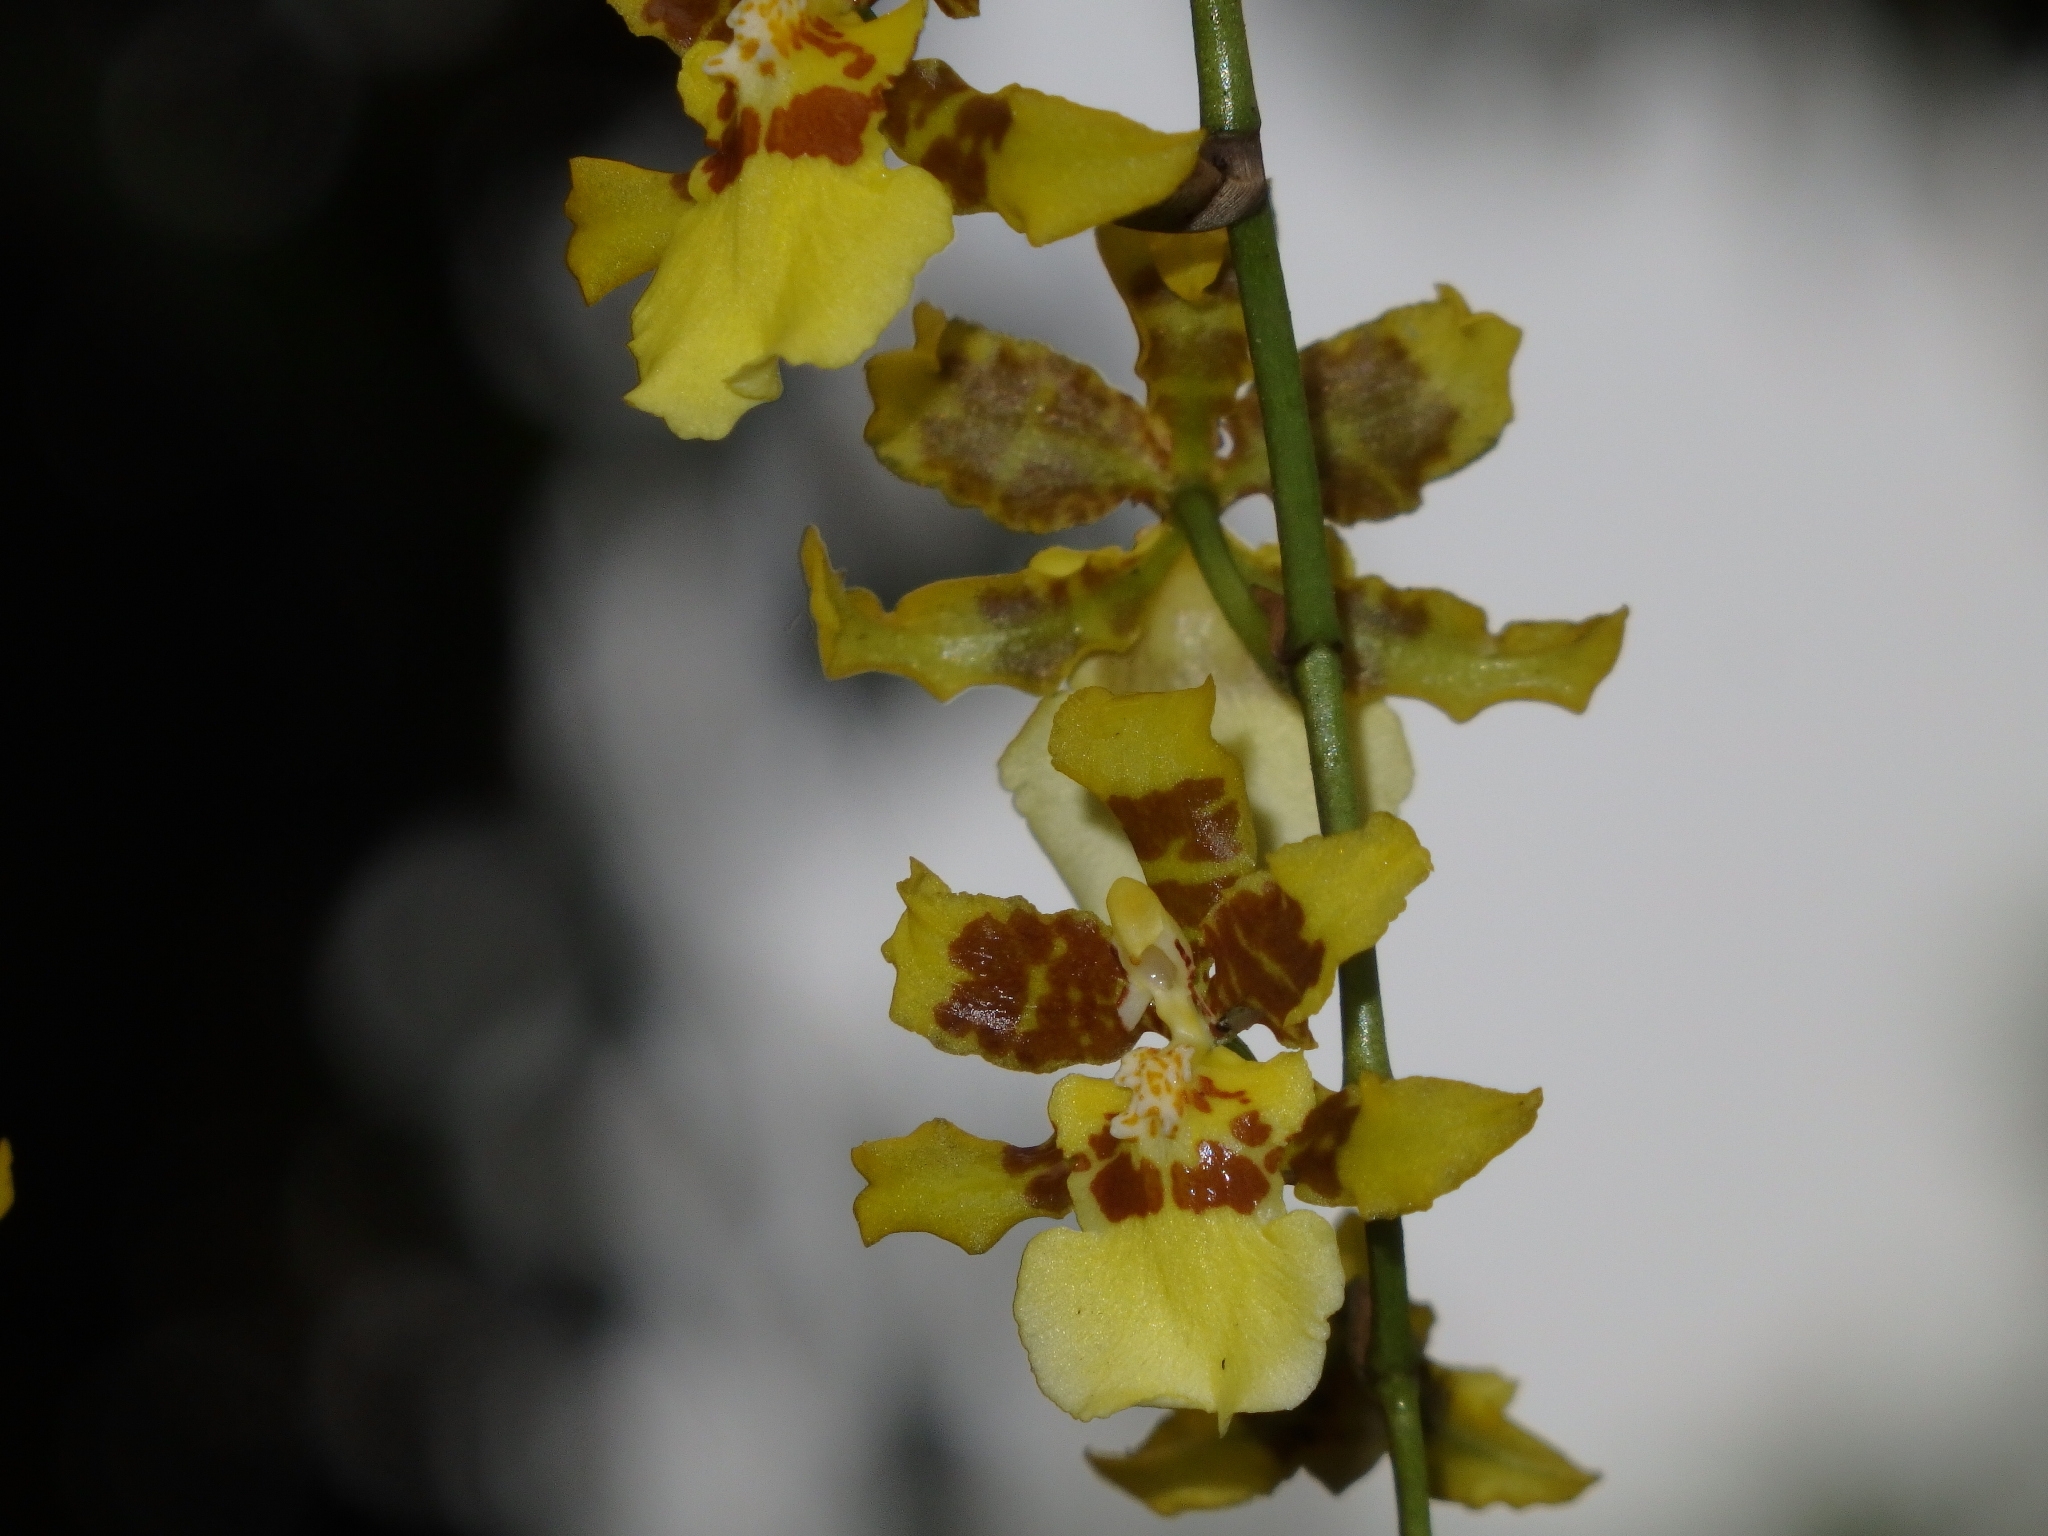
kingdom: Plantae
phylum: Tracheophyta
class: Liliopsida
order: Asparagales
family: Orchidaceae
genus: Oncidium
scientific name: Oncidium sphacelatum
